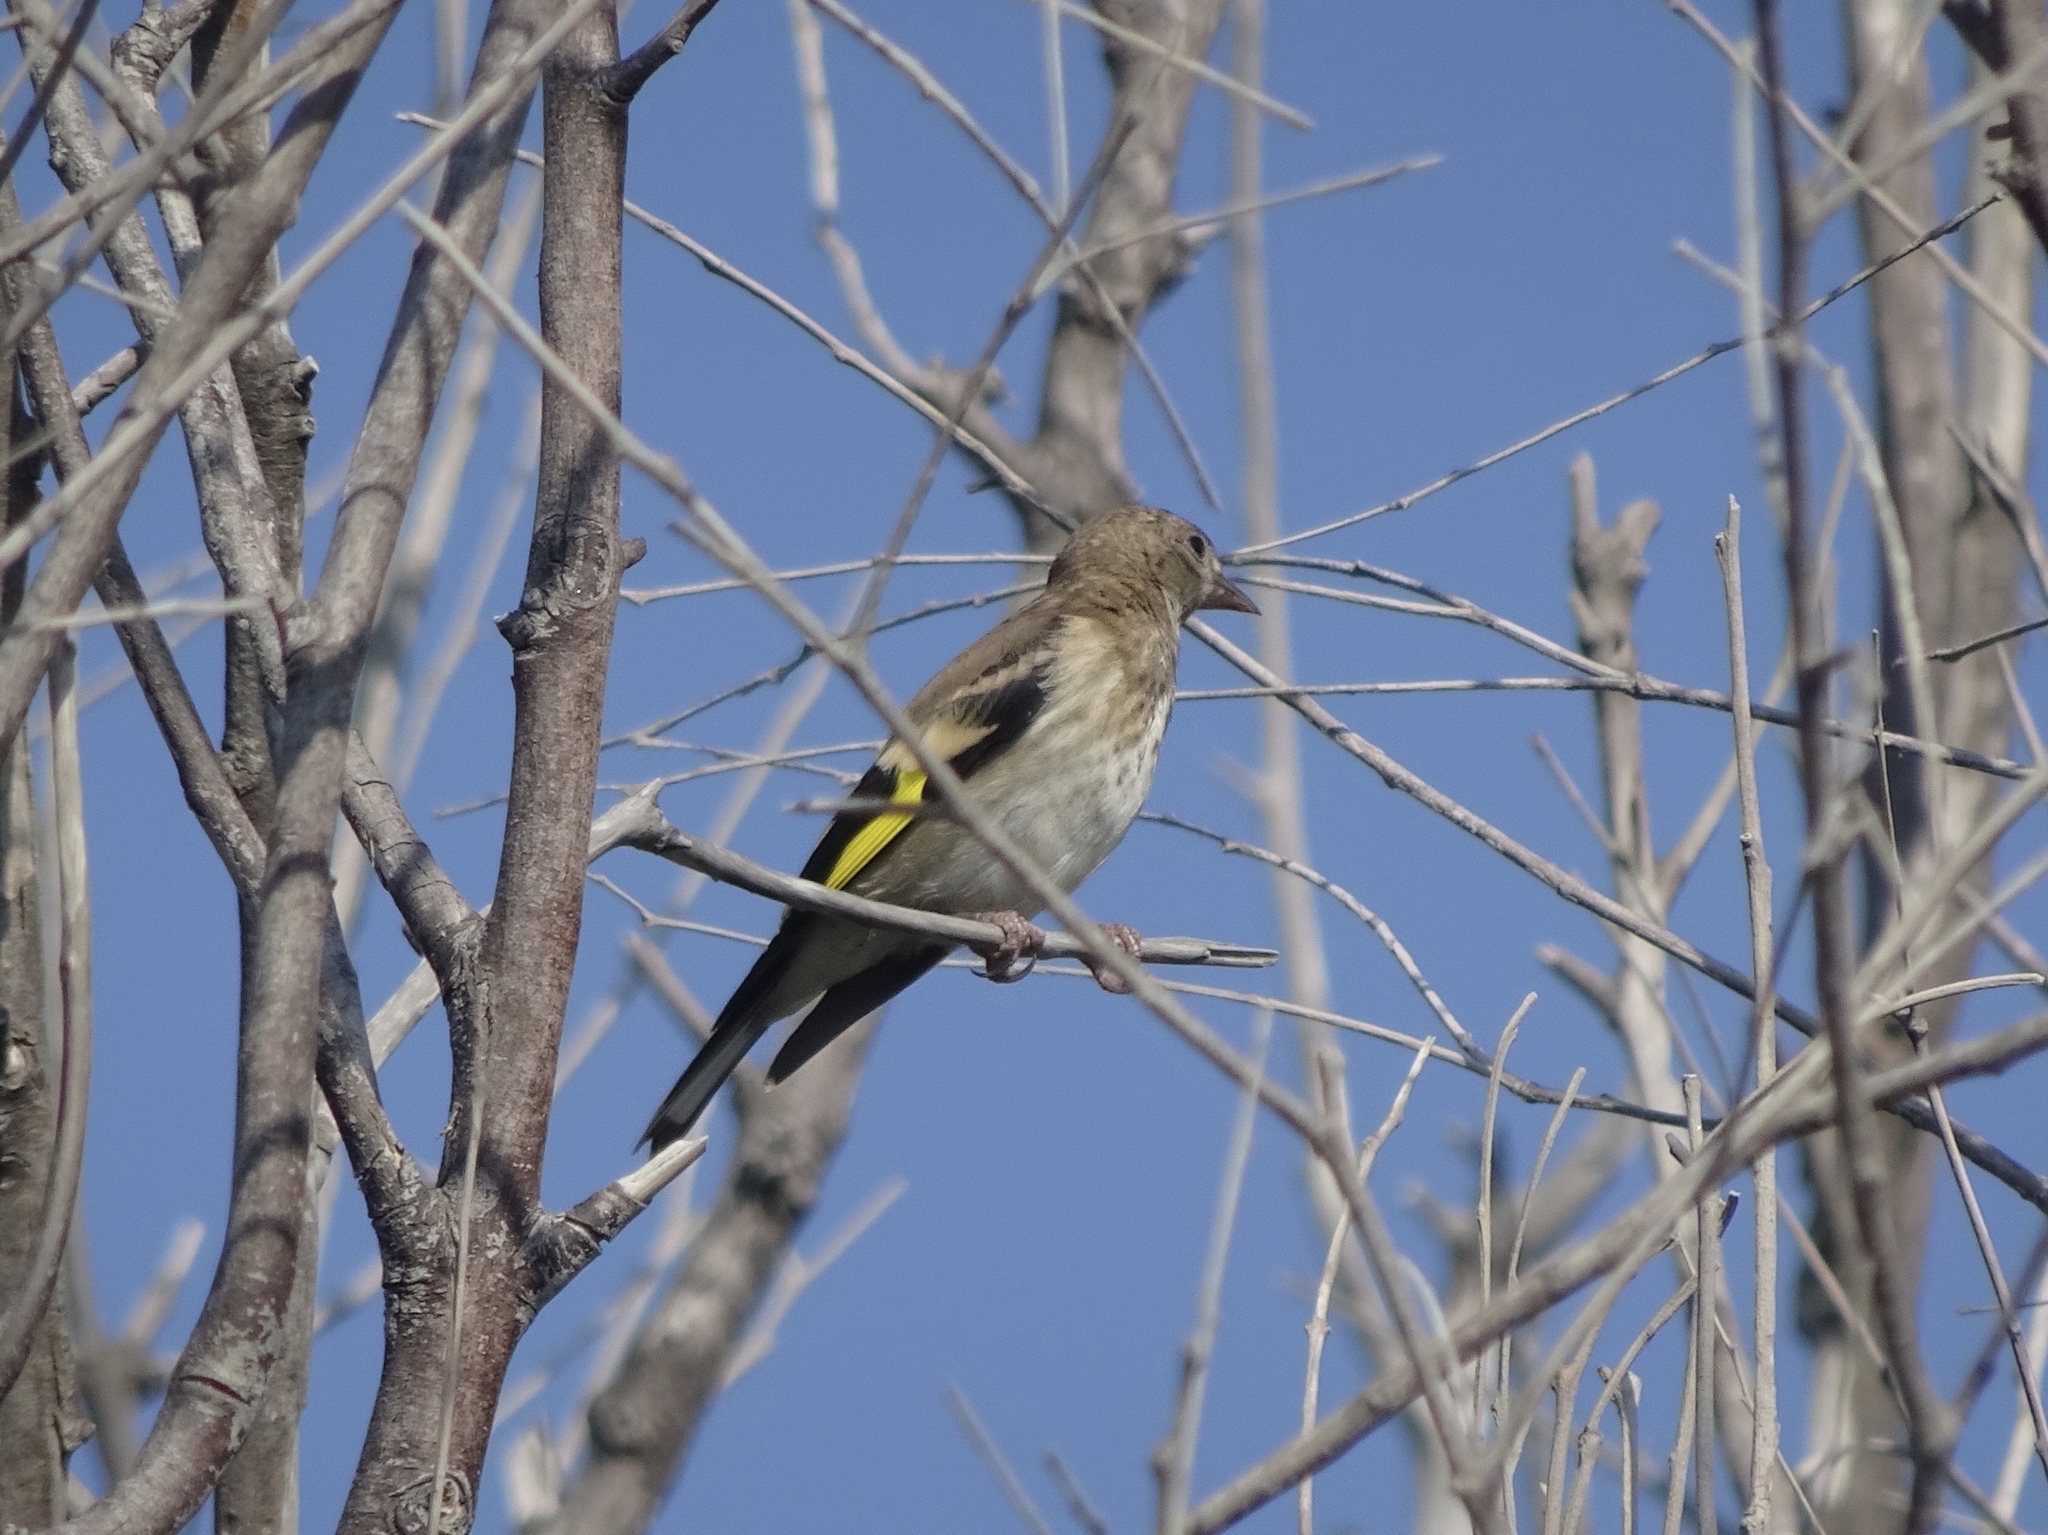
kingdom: Animalia
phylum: Chordata
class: Aves
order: Passeriformes
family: Fringillidae
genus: Carduelis
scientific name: Carduelis carduelis
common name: European goldfinch
